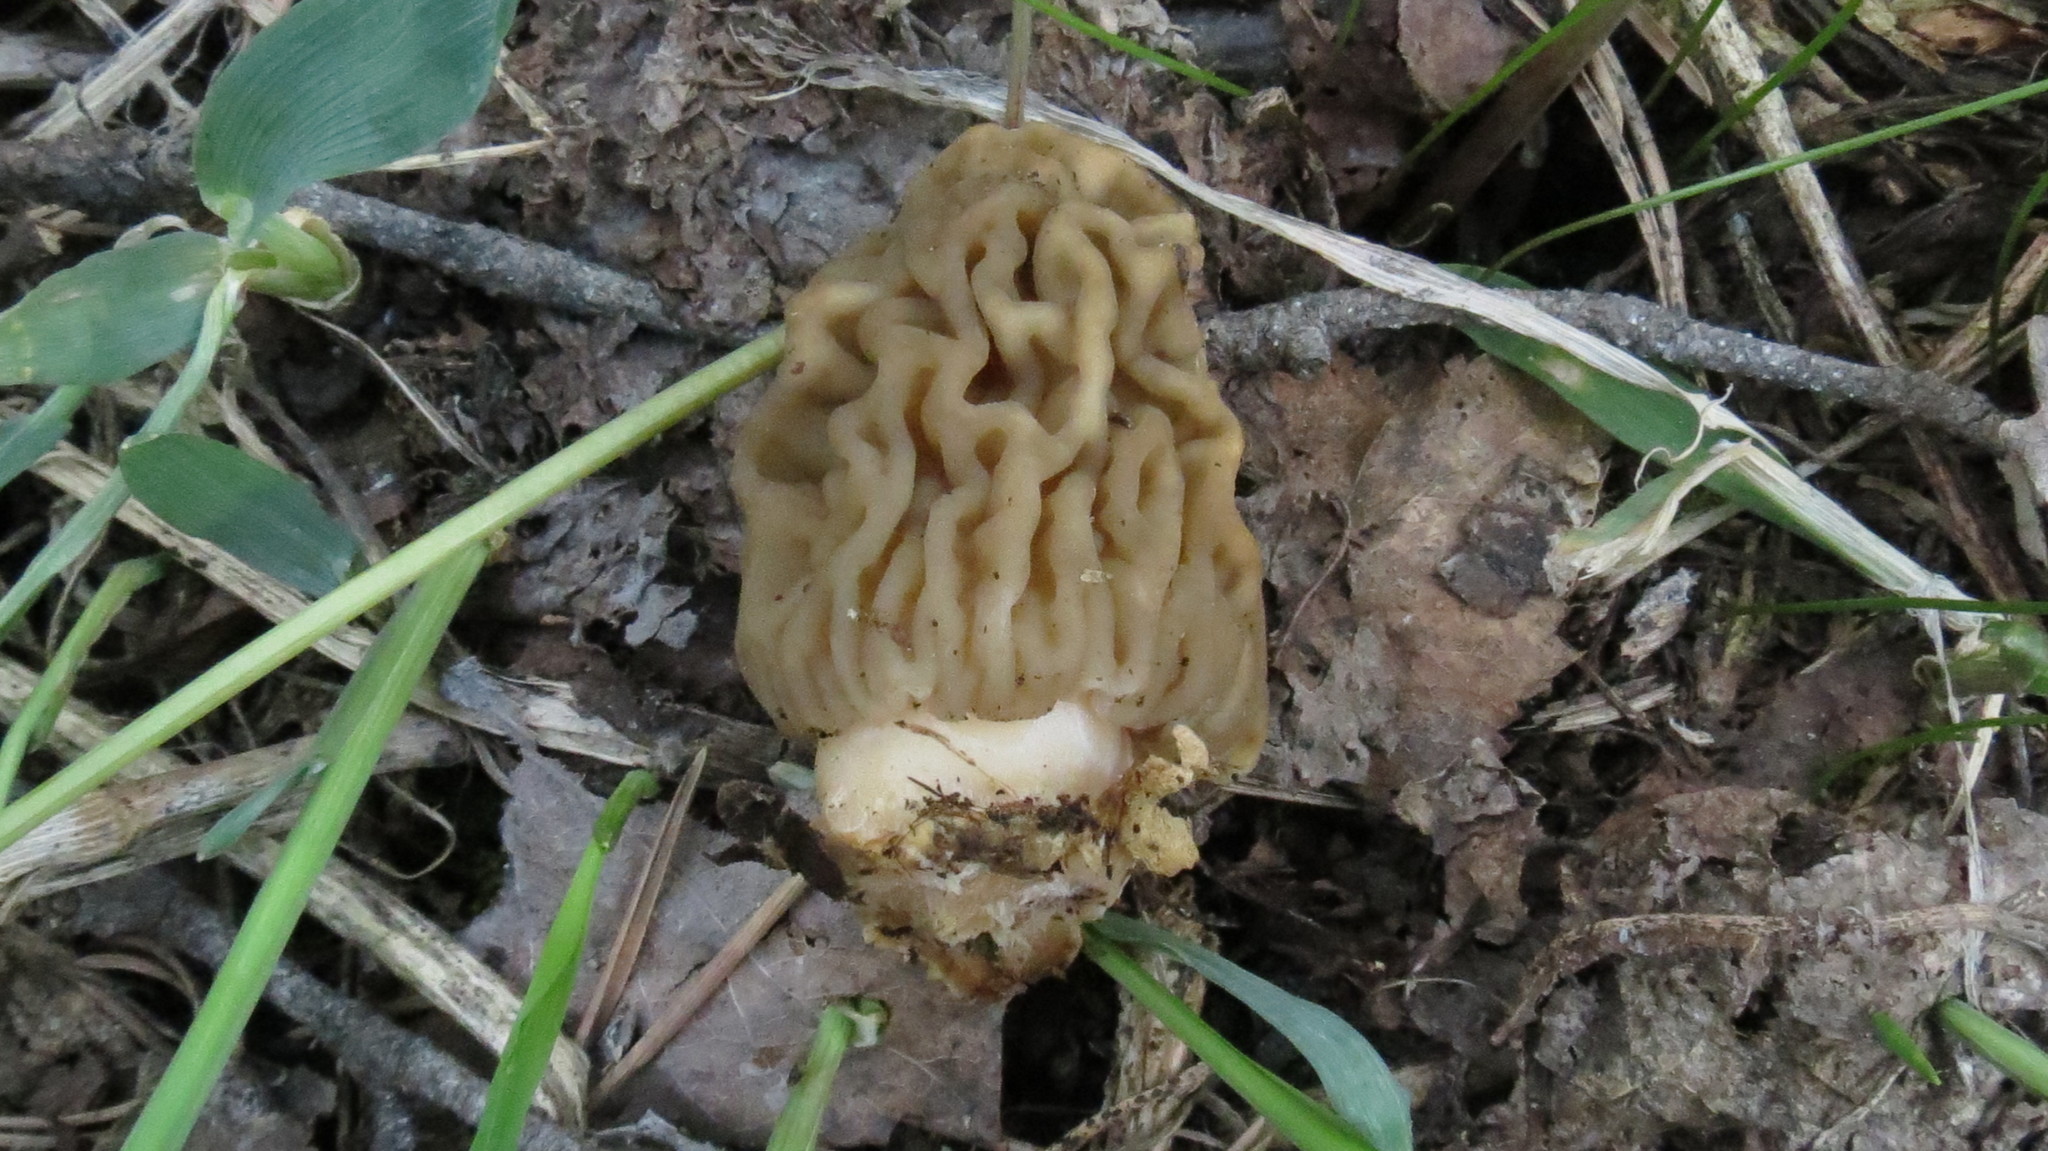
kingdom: Fungi
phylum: Ascomycota
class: Pezizomycetes
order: Pezizales
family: Morchellaceae
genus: Verpa
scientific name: Verpa bohemica
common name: Wrinkled thimble morel
